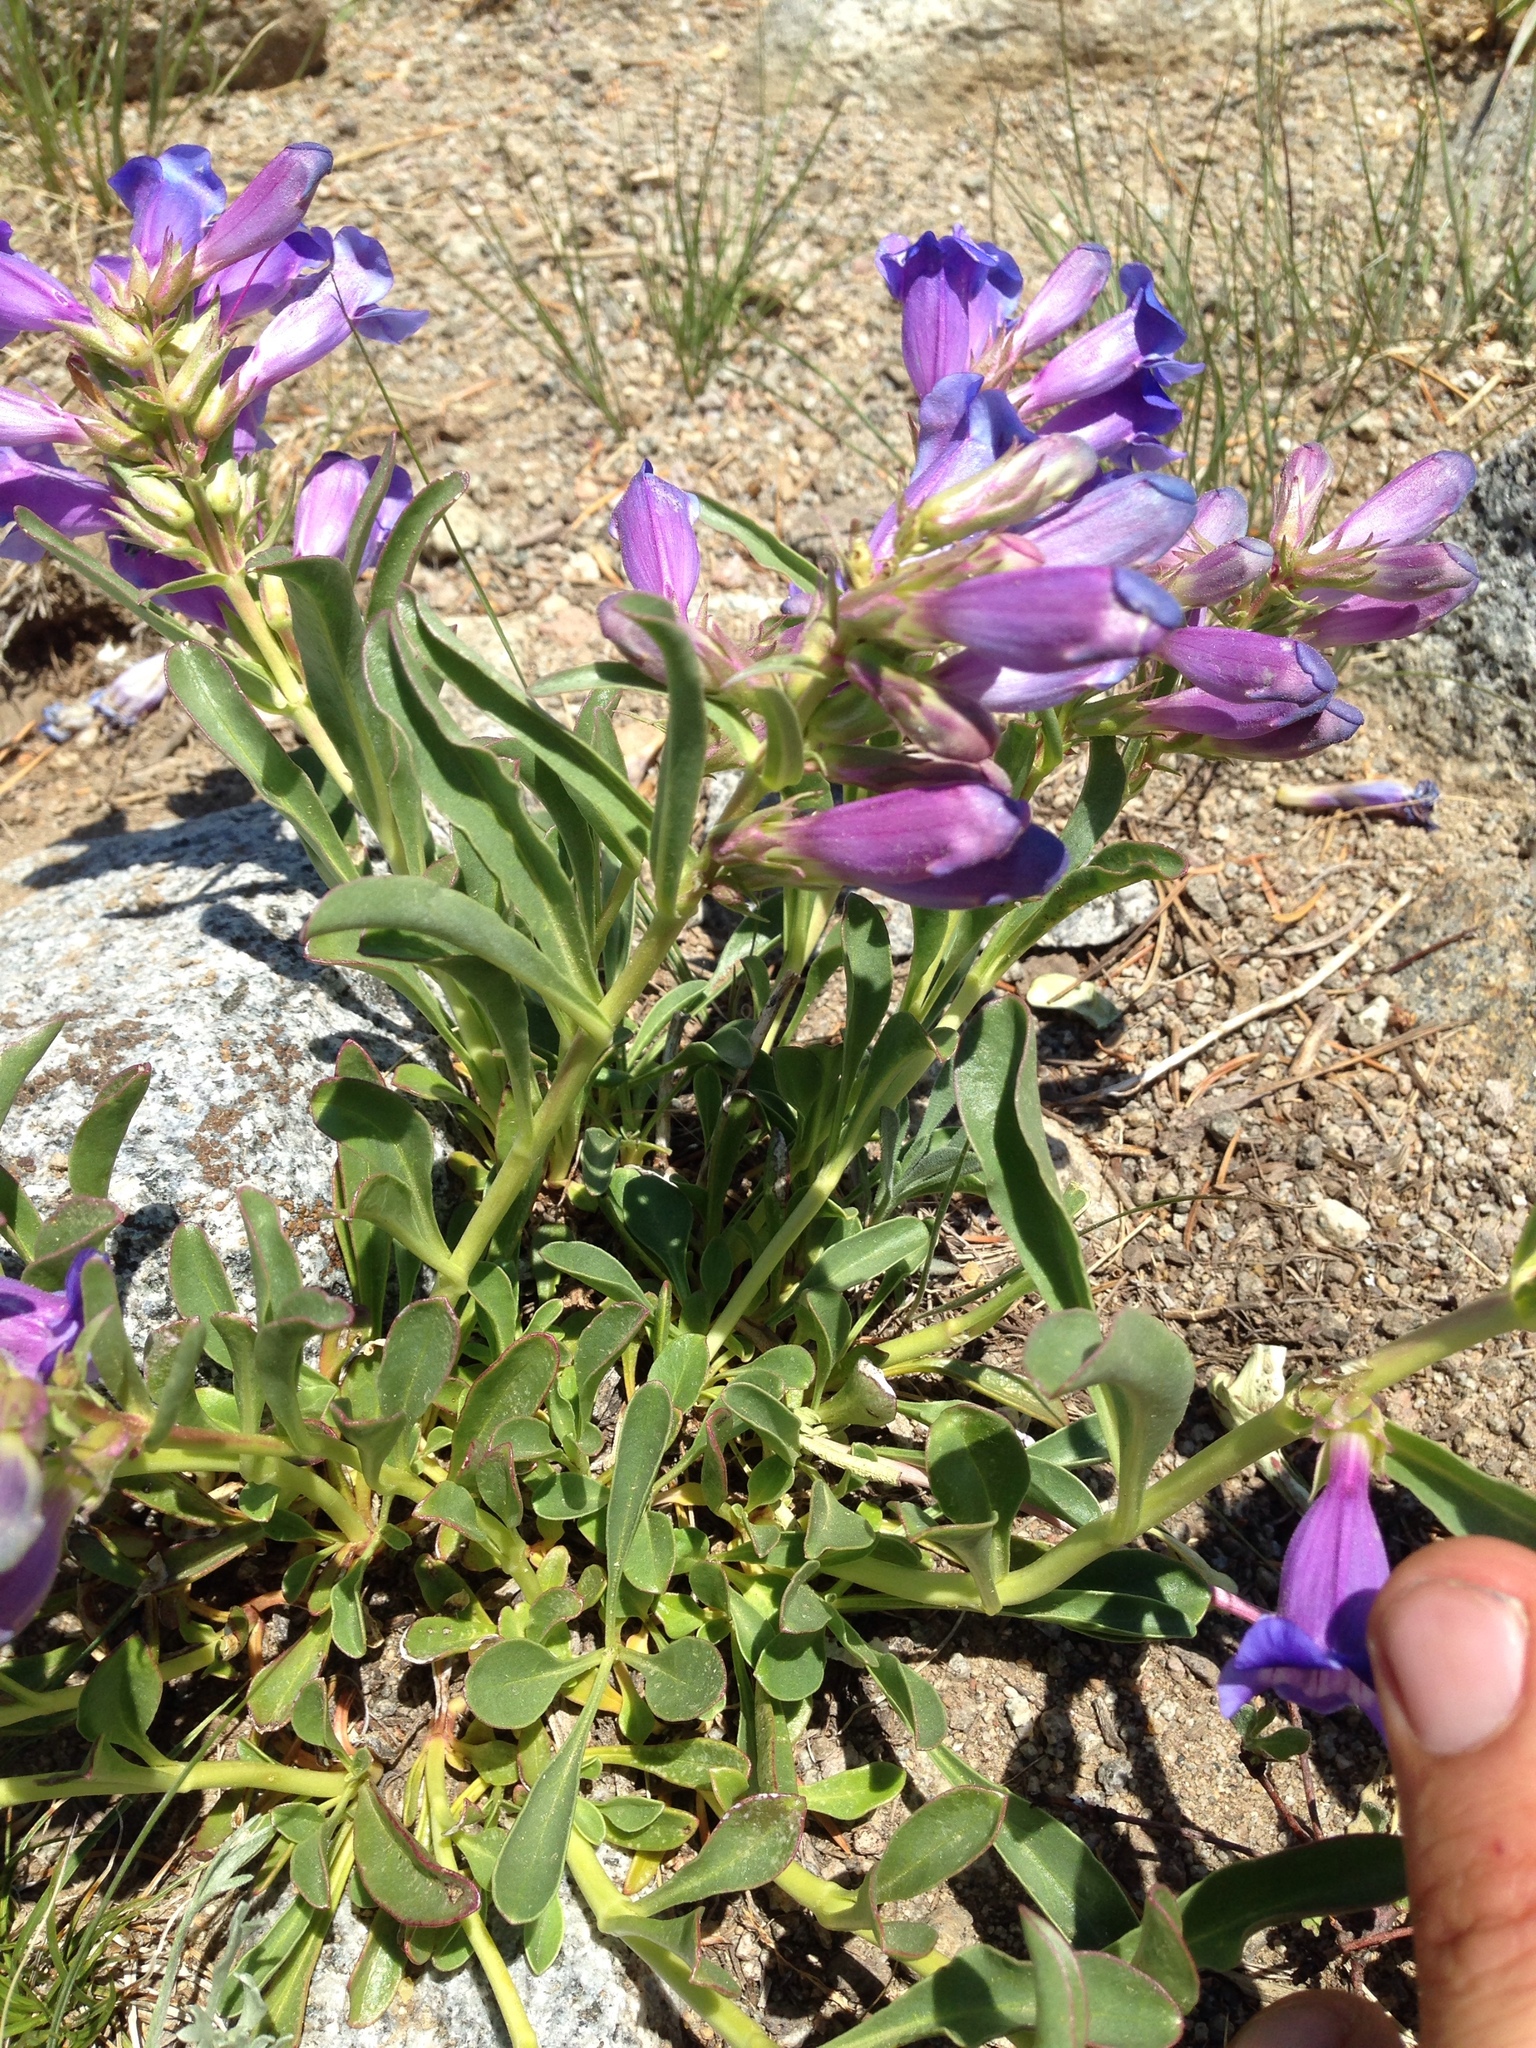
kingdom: Plantae
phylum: Tracheophyta
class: Magnoliopsida
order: Lamiales
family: Plantaginaceae
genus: Penstemon
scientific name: Penstemon speciosus
